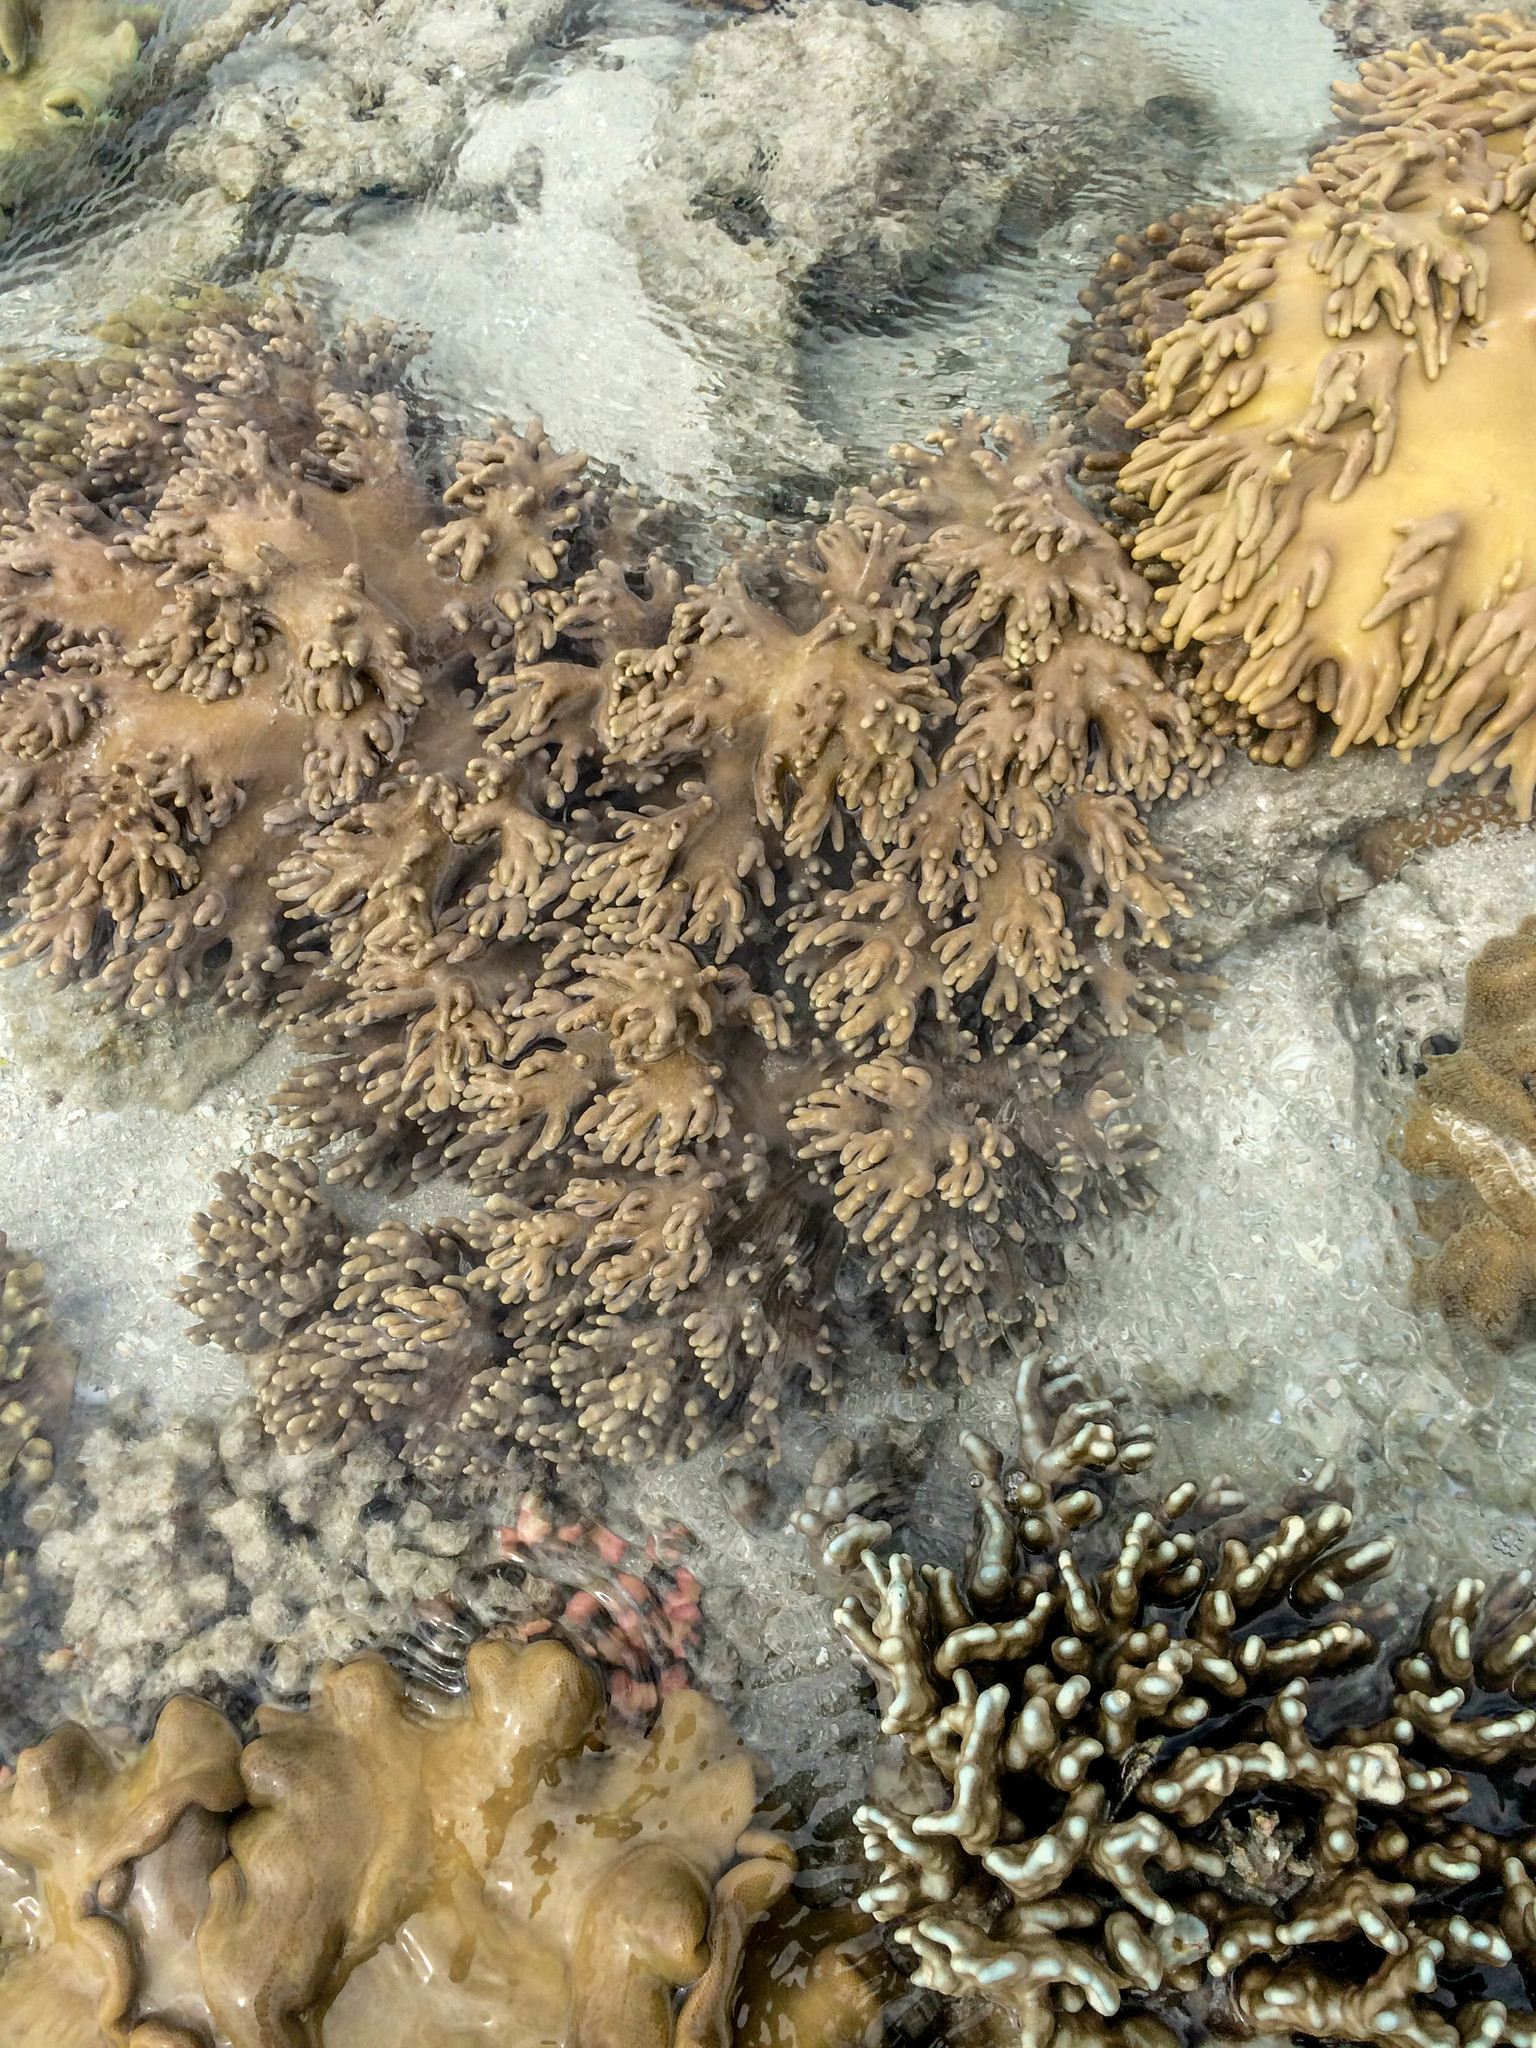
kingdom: Animalia
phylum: Cnidaria
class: Anthozoa
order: Scleralcyonacea
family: Helioporidae
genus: Heliopora
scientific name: Heliopora coerulea
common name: Blue coral
